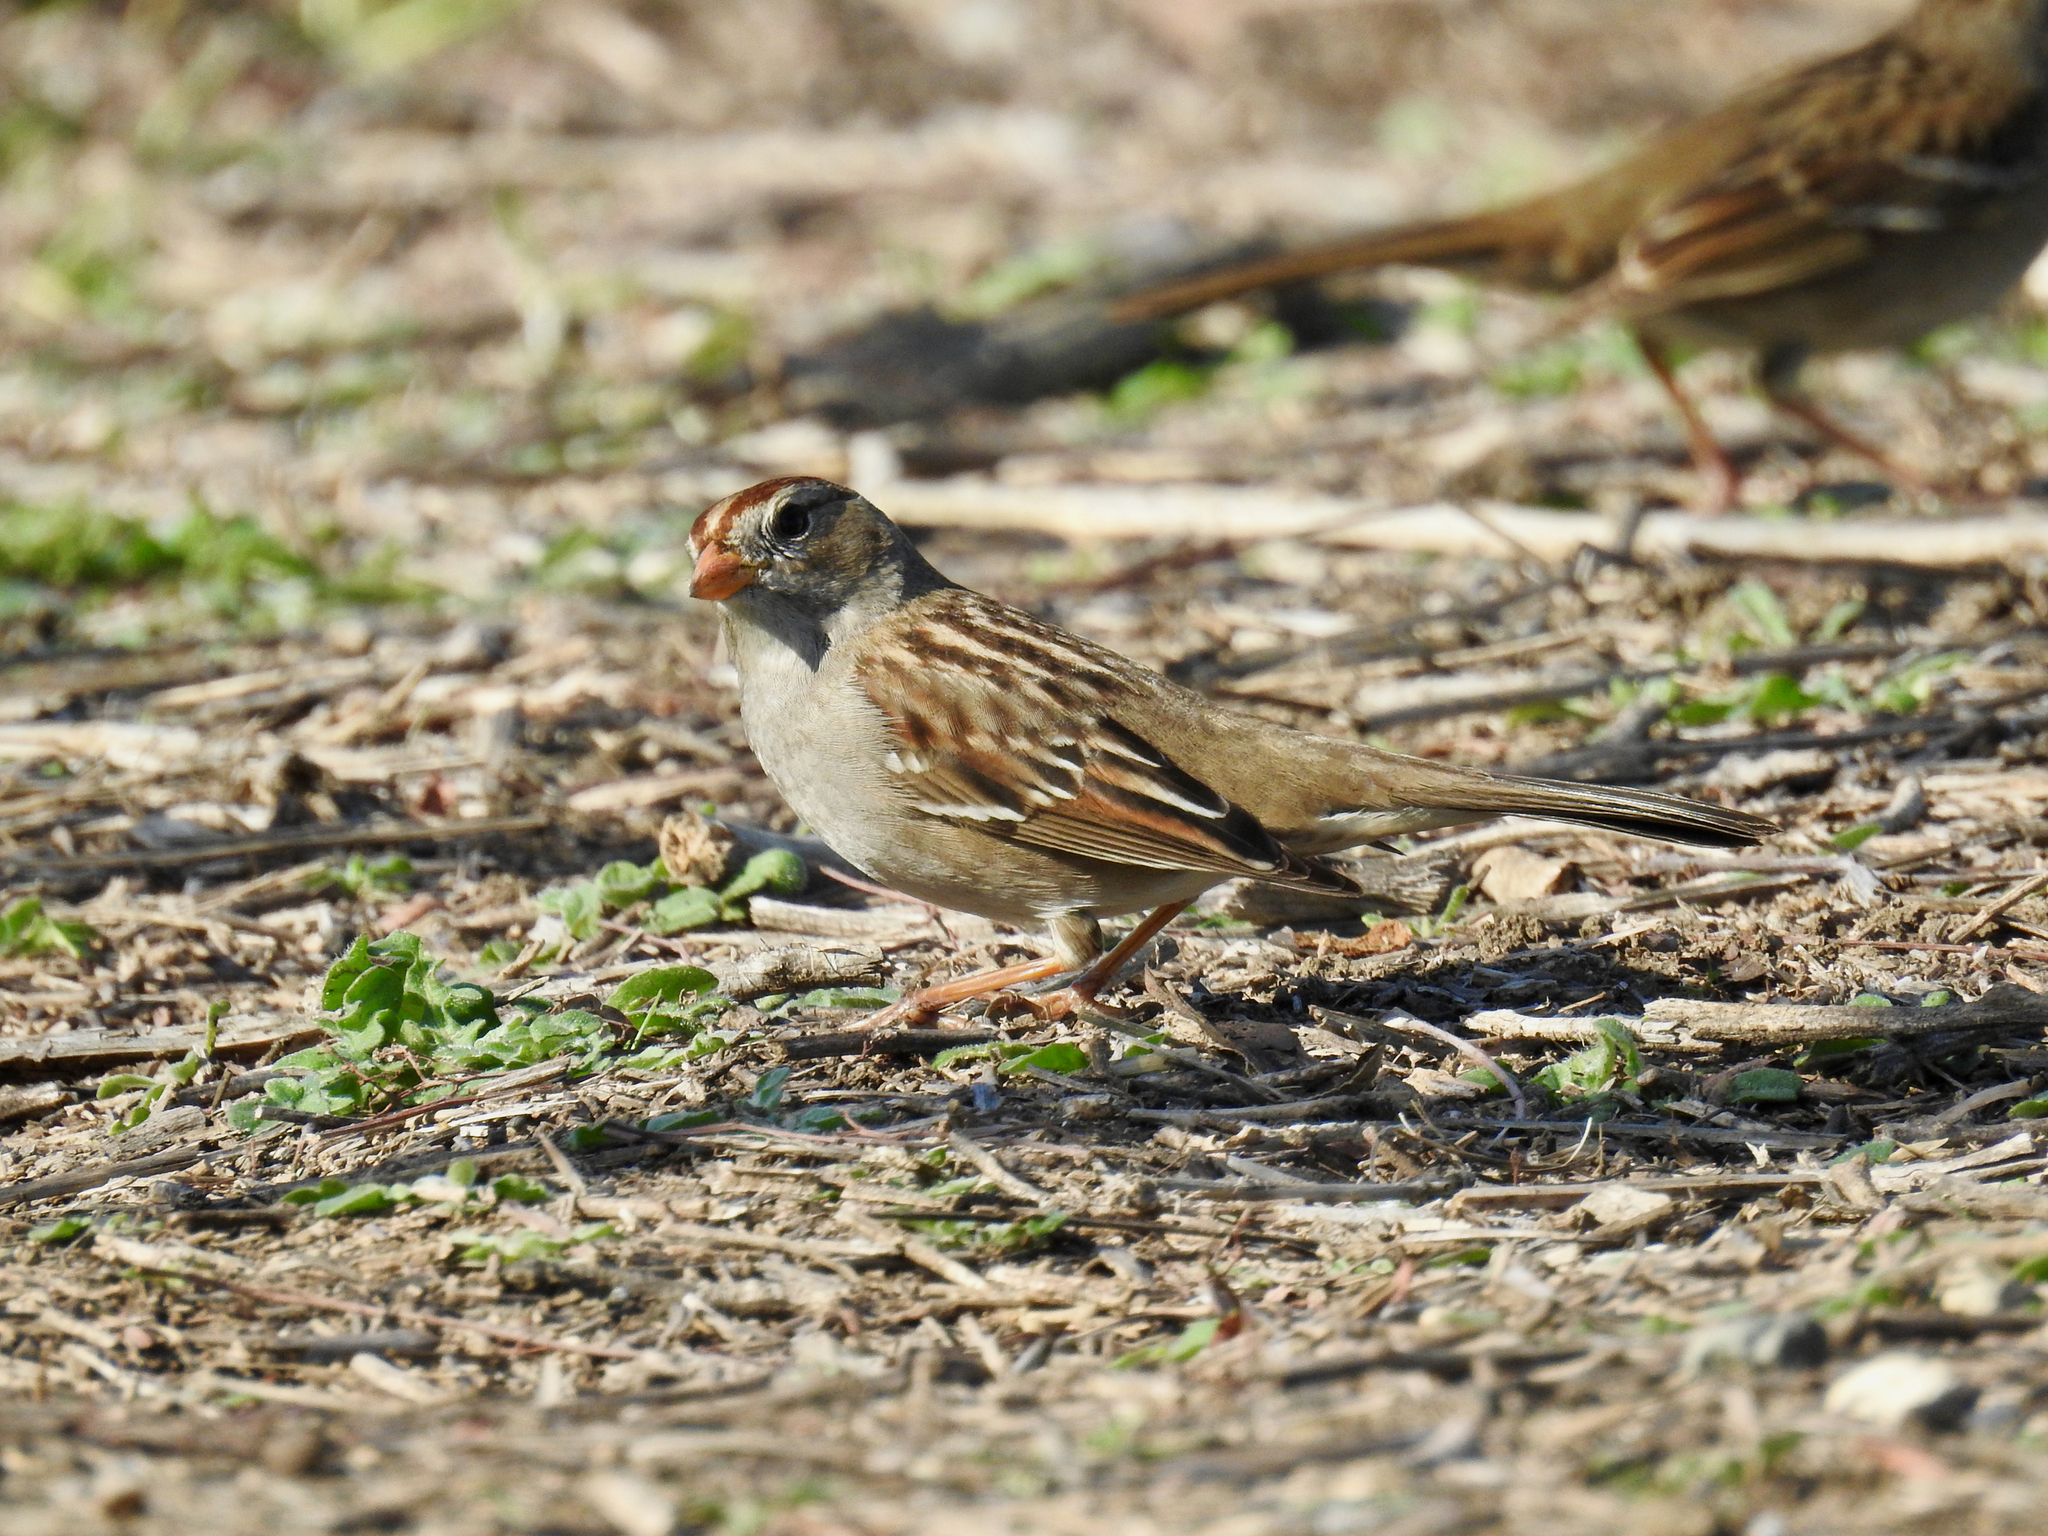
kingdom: Animalia
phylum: Chordata
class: Aves
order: Passeriformes
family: Passerellidae
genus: Zonotrichia
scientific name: Zonotrichia leucophrys
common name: White-crowned sparrow
